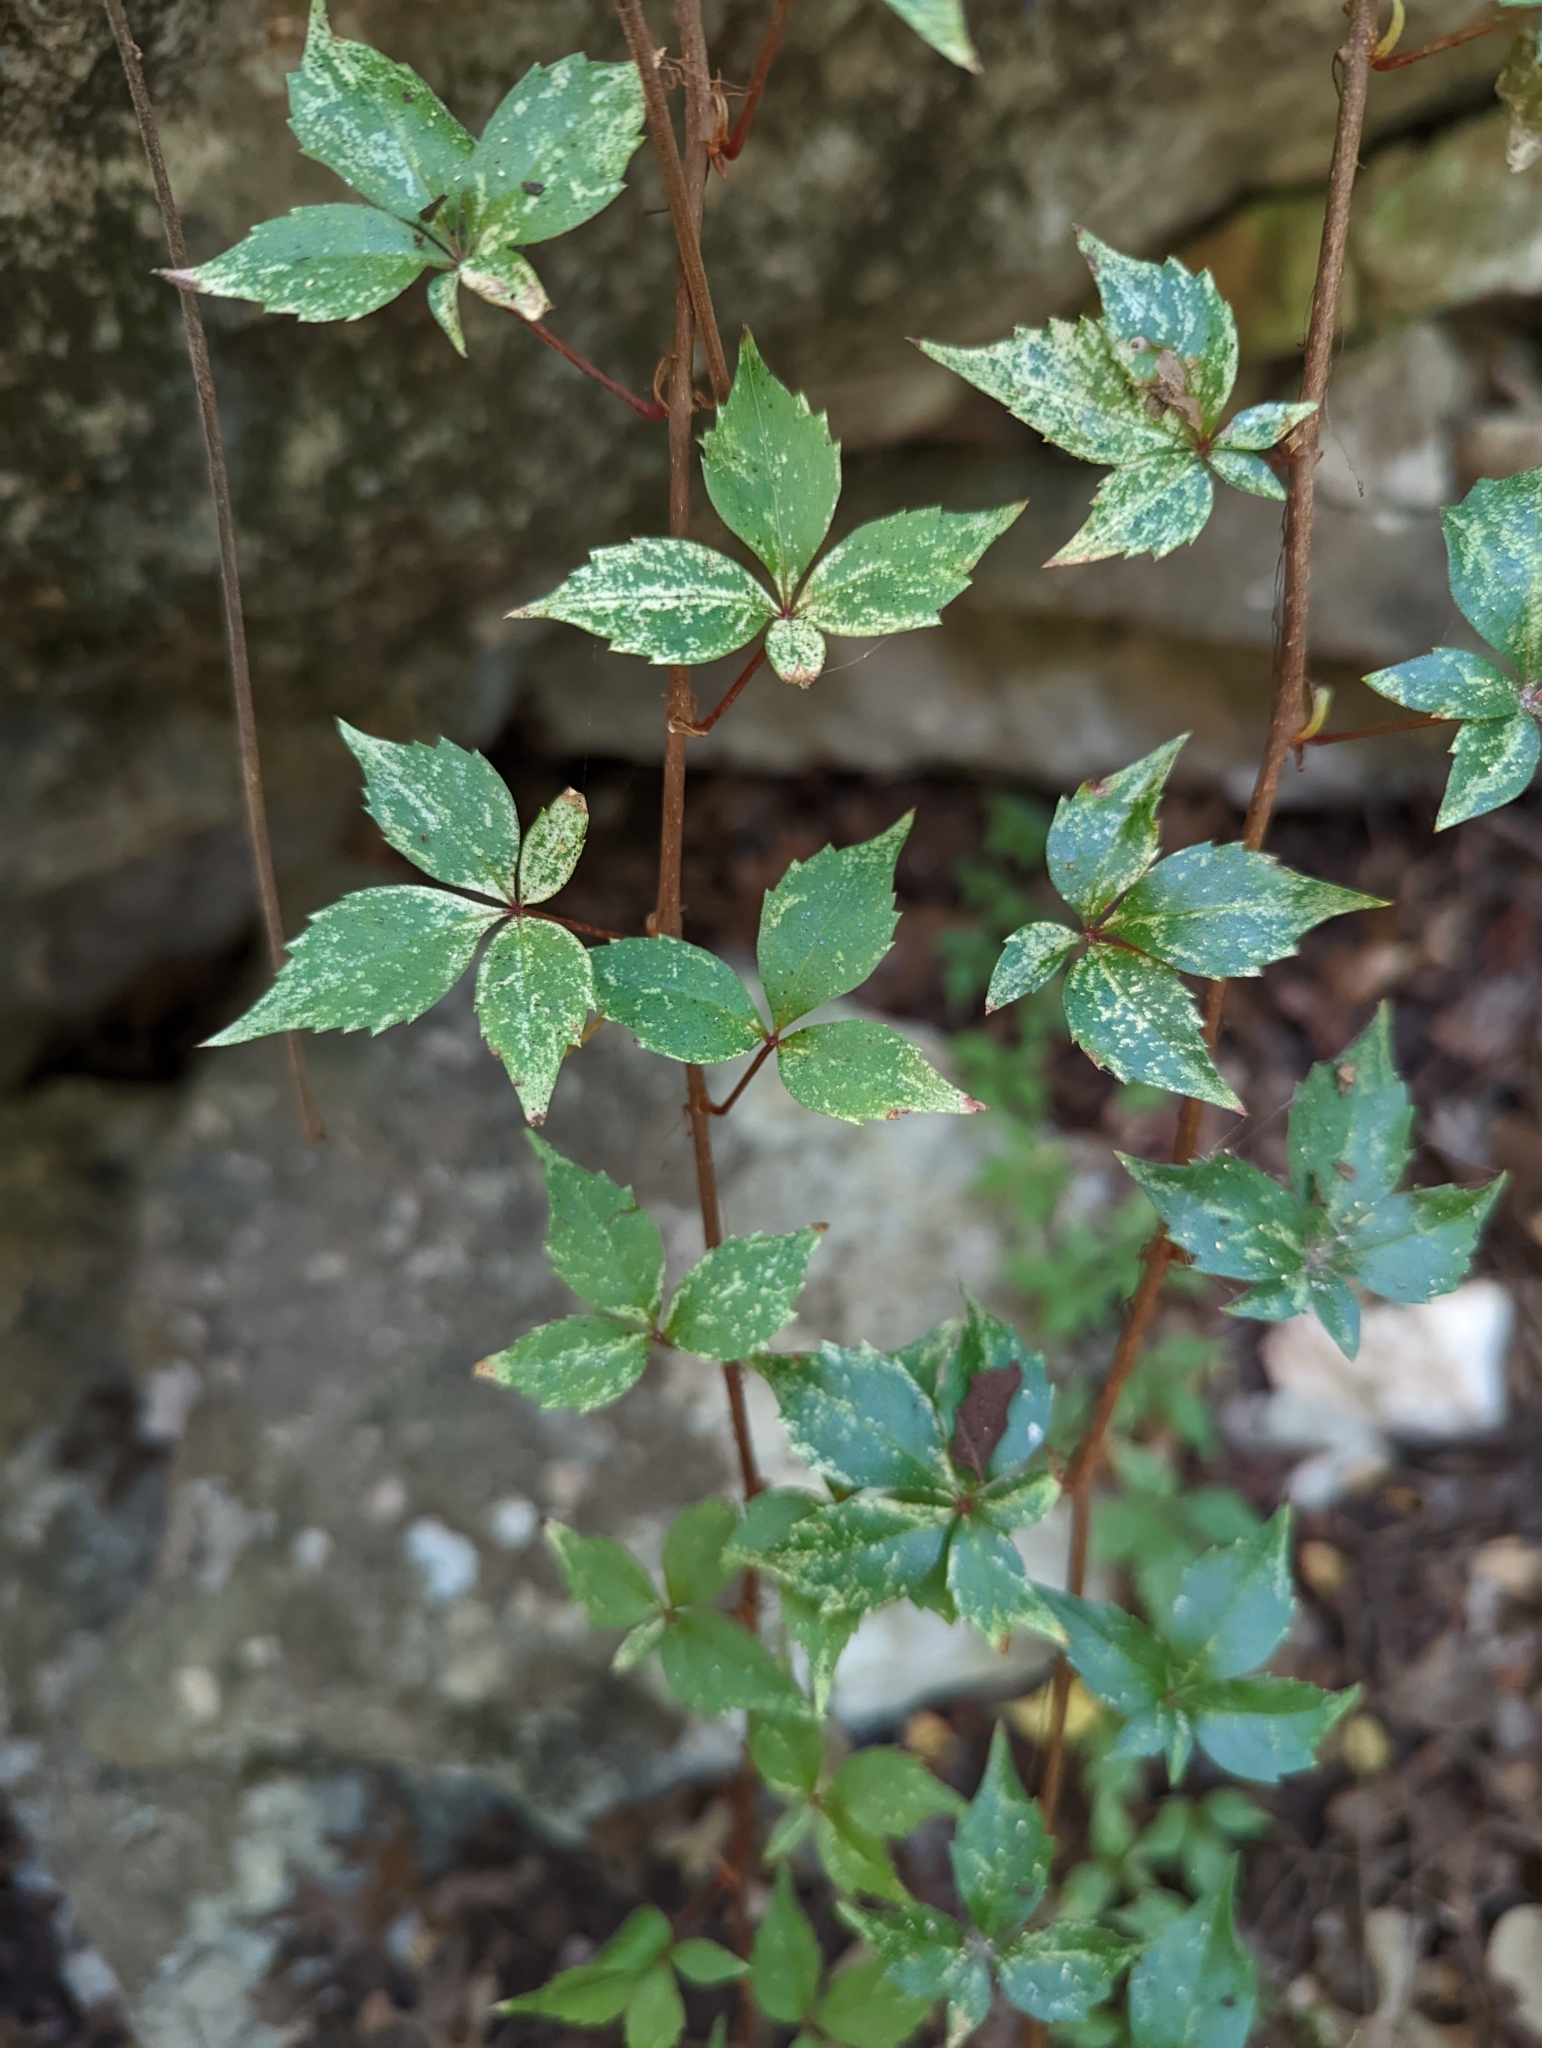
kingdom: Plantae
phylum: Tracheophyta
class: Magnoliopsida
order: Vitales
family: Vitaceae
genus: Parthenocissus
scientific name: Parthenocissus quinquefolia
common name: Virginia-creeper
